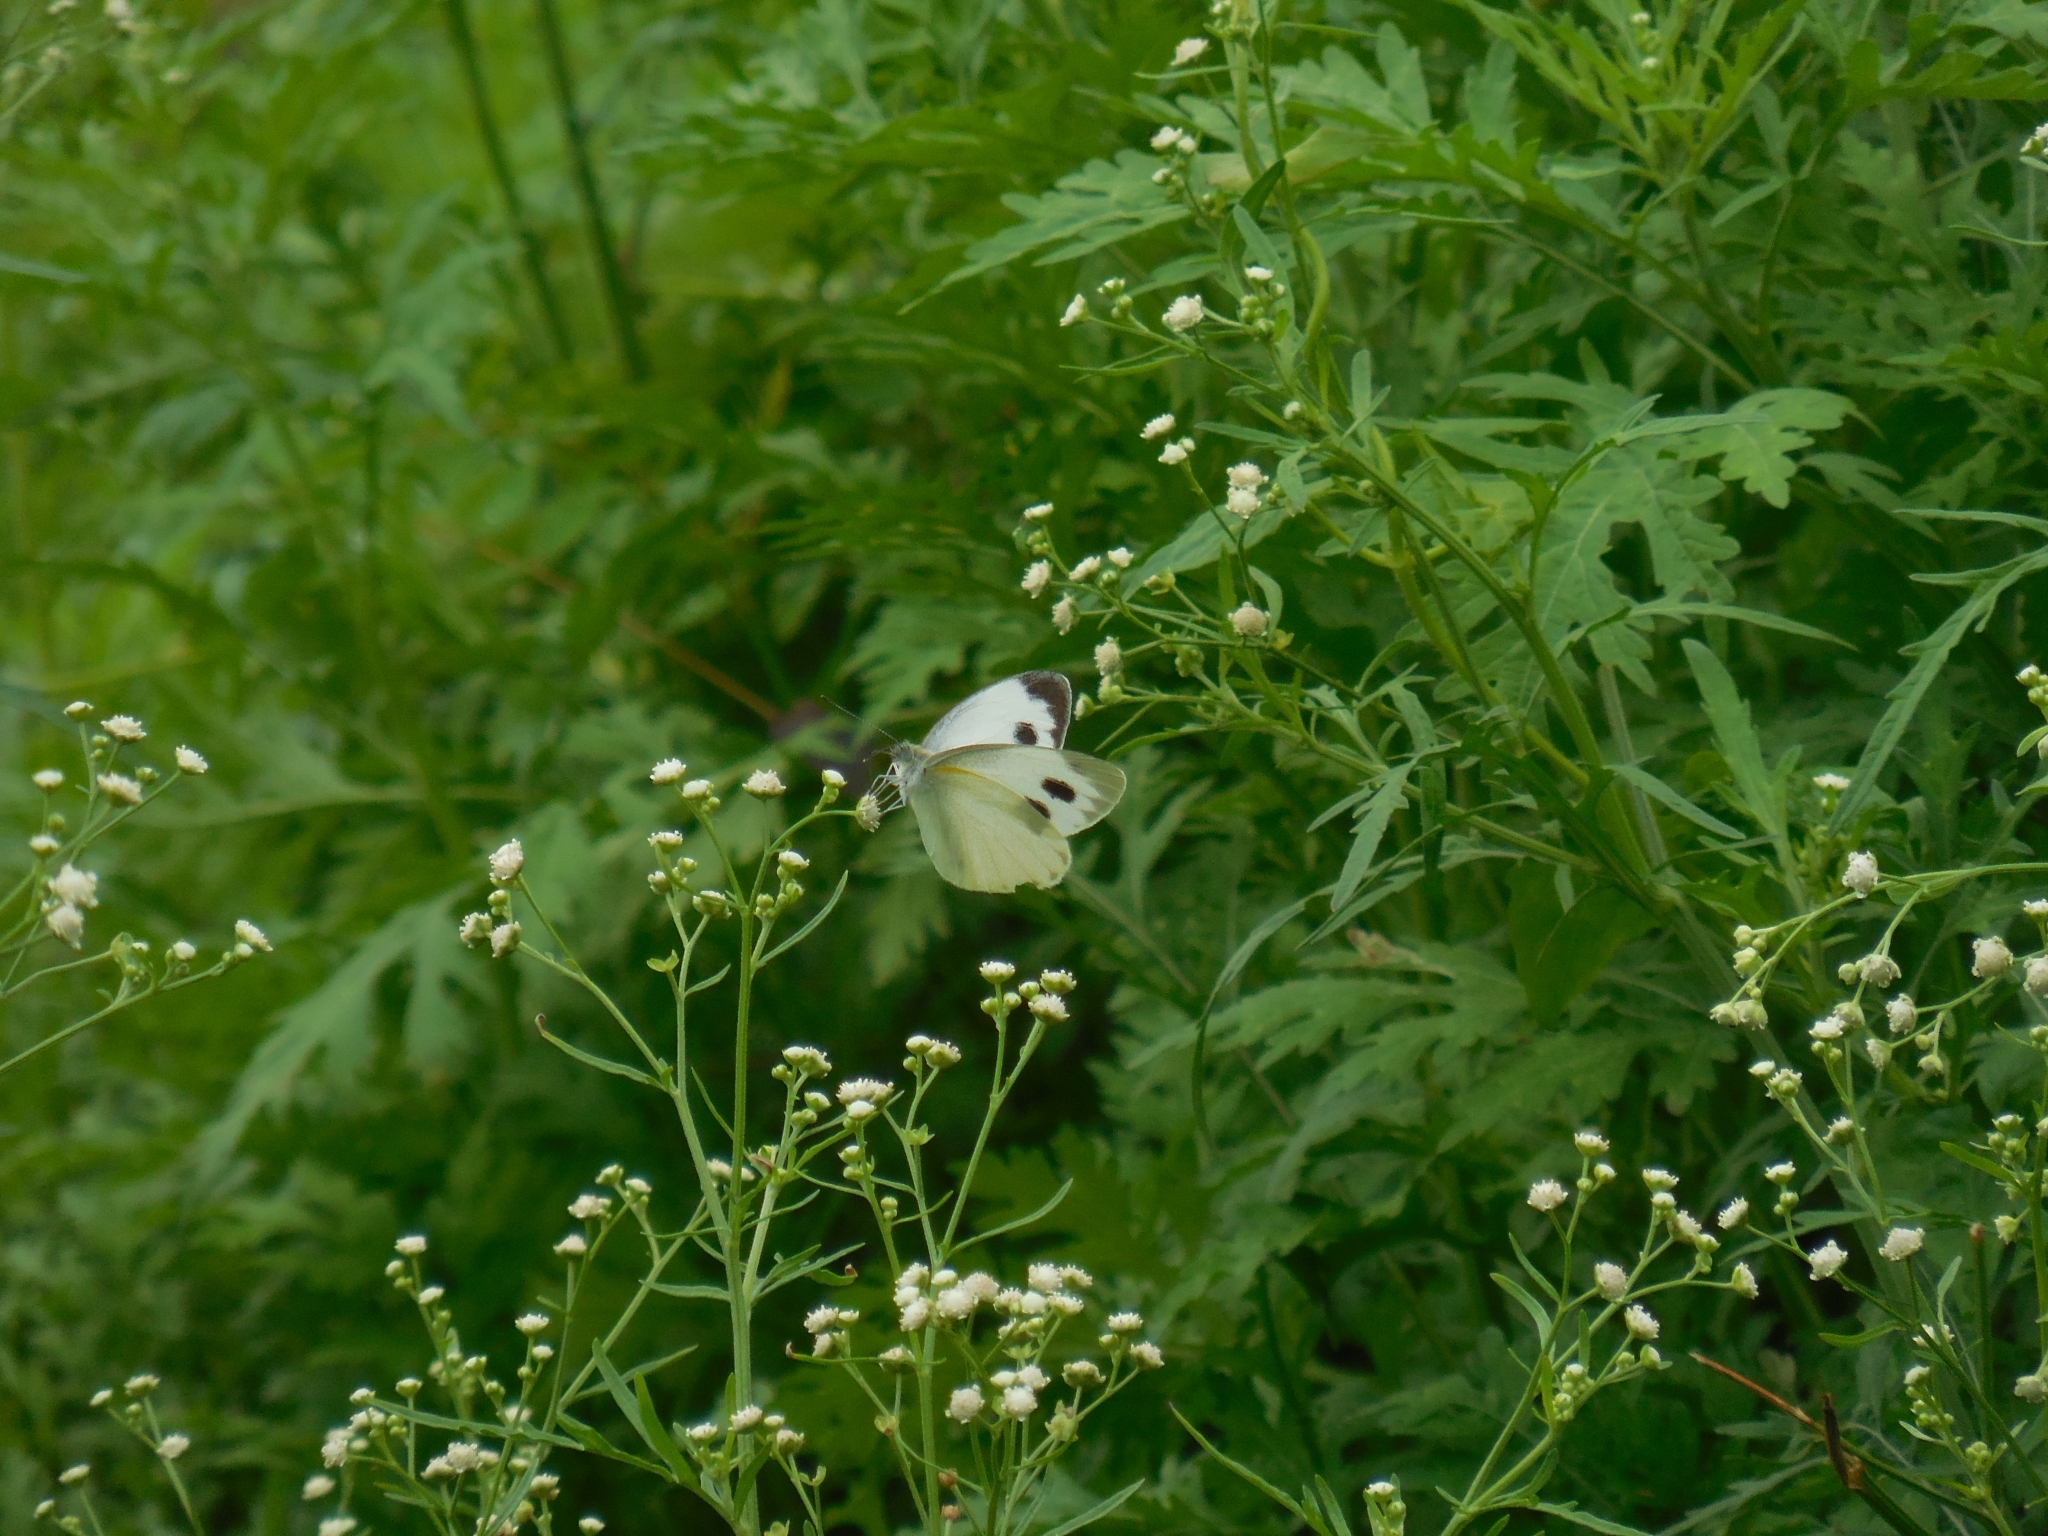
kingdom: Animalia
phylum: Arthropoda
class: Insecta
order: Lepidoptera
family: Pieridae
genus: Pieris
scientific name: Pieris canidia
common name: Indian cabbage white
